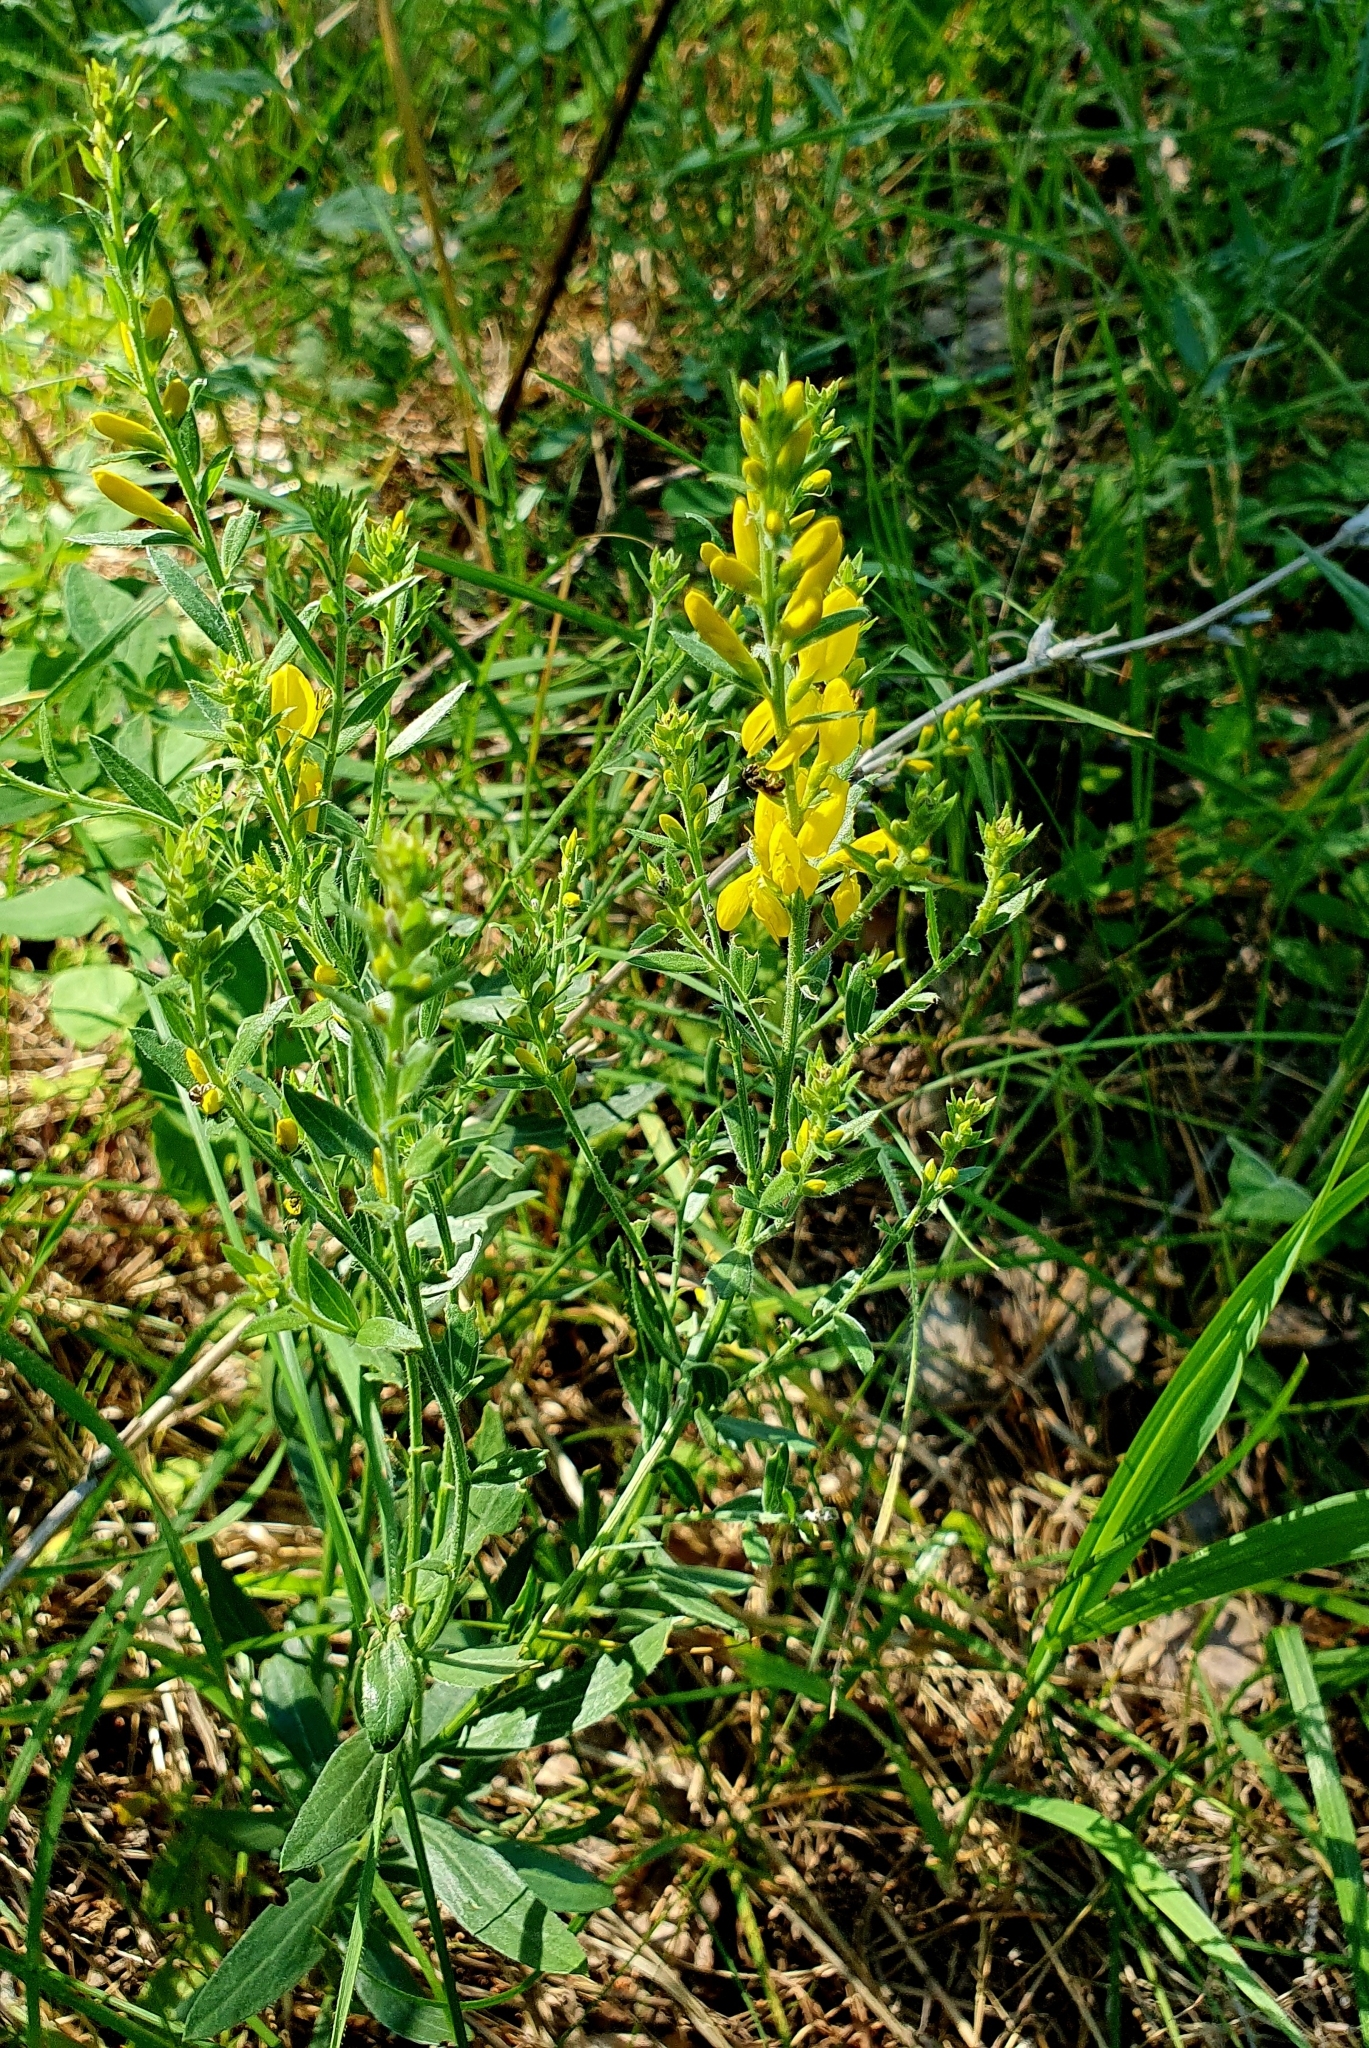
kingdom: Plantae
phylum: Tracheophyta
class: Magnoliopsida
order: Fabales
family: Fabaceae
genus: Genista
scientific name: Genista tinctoria
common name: Dyer's greenweed
